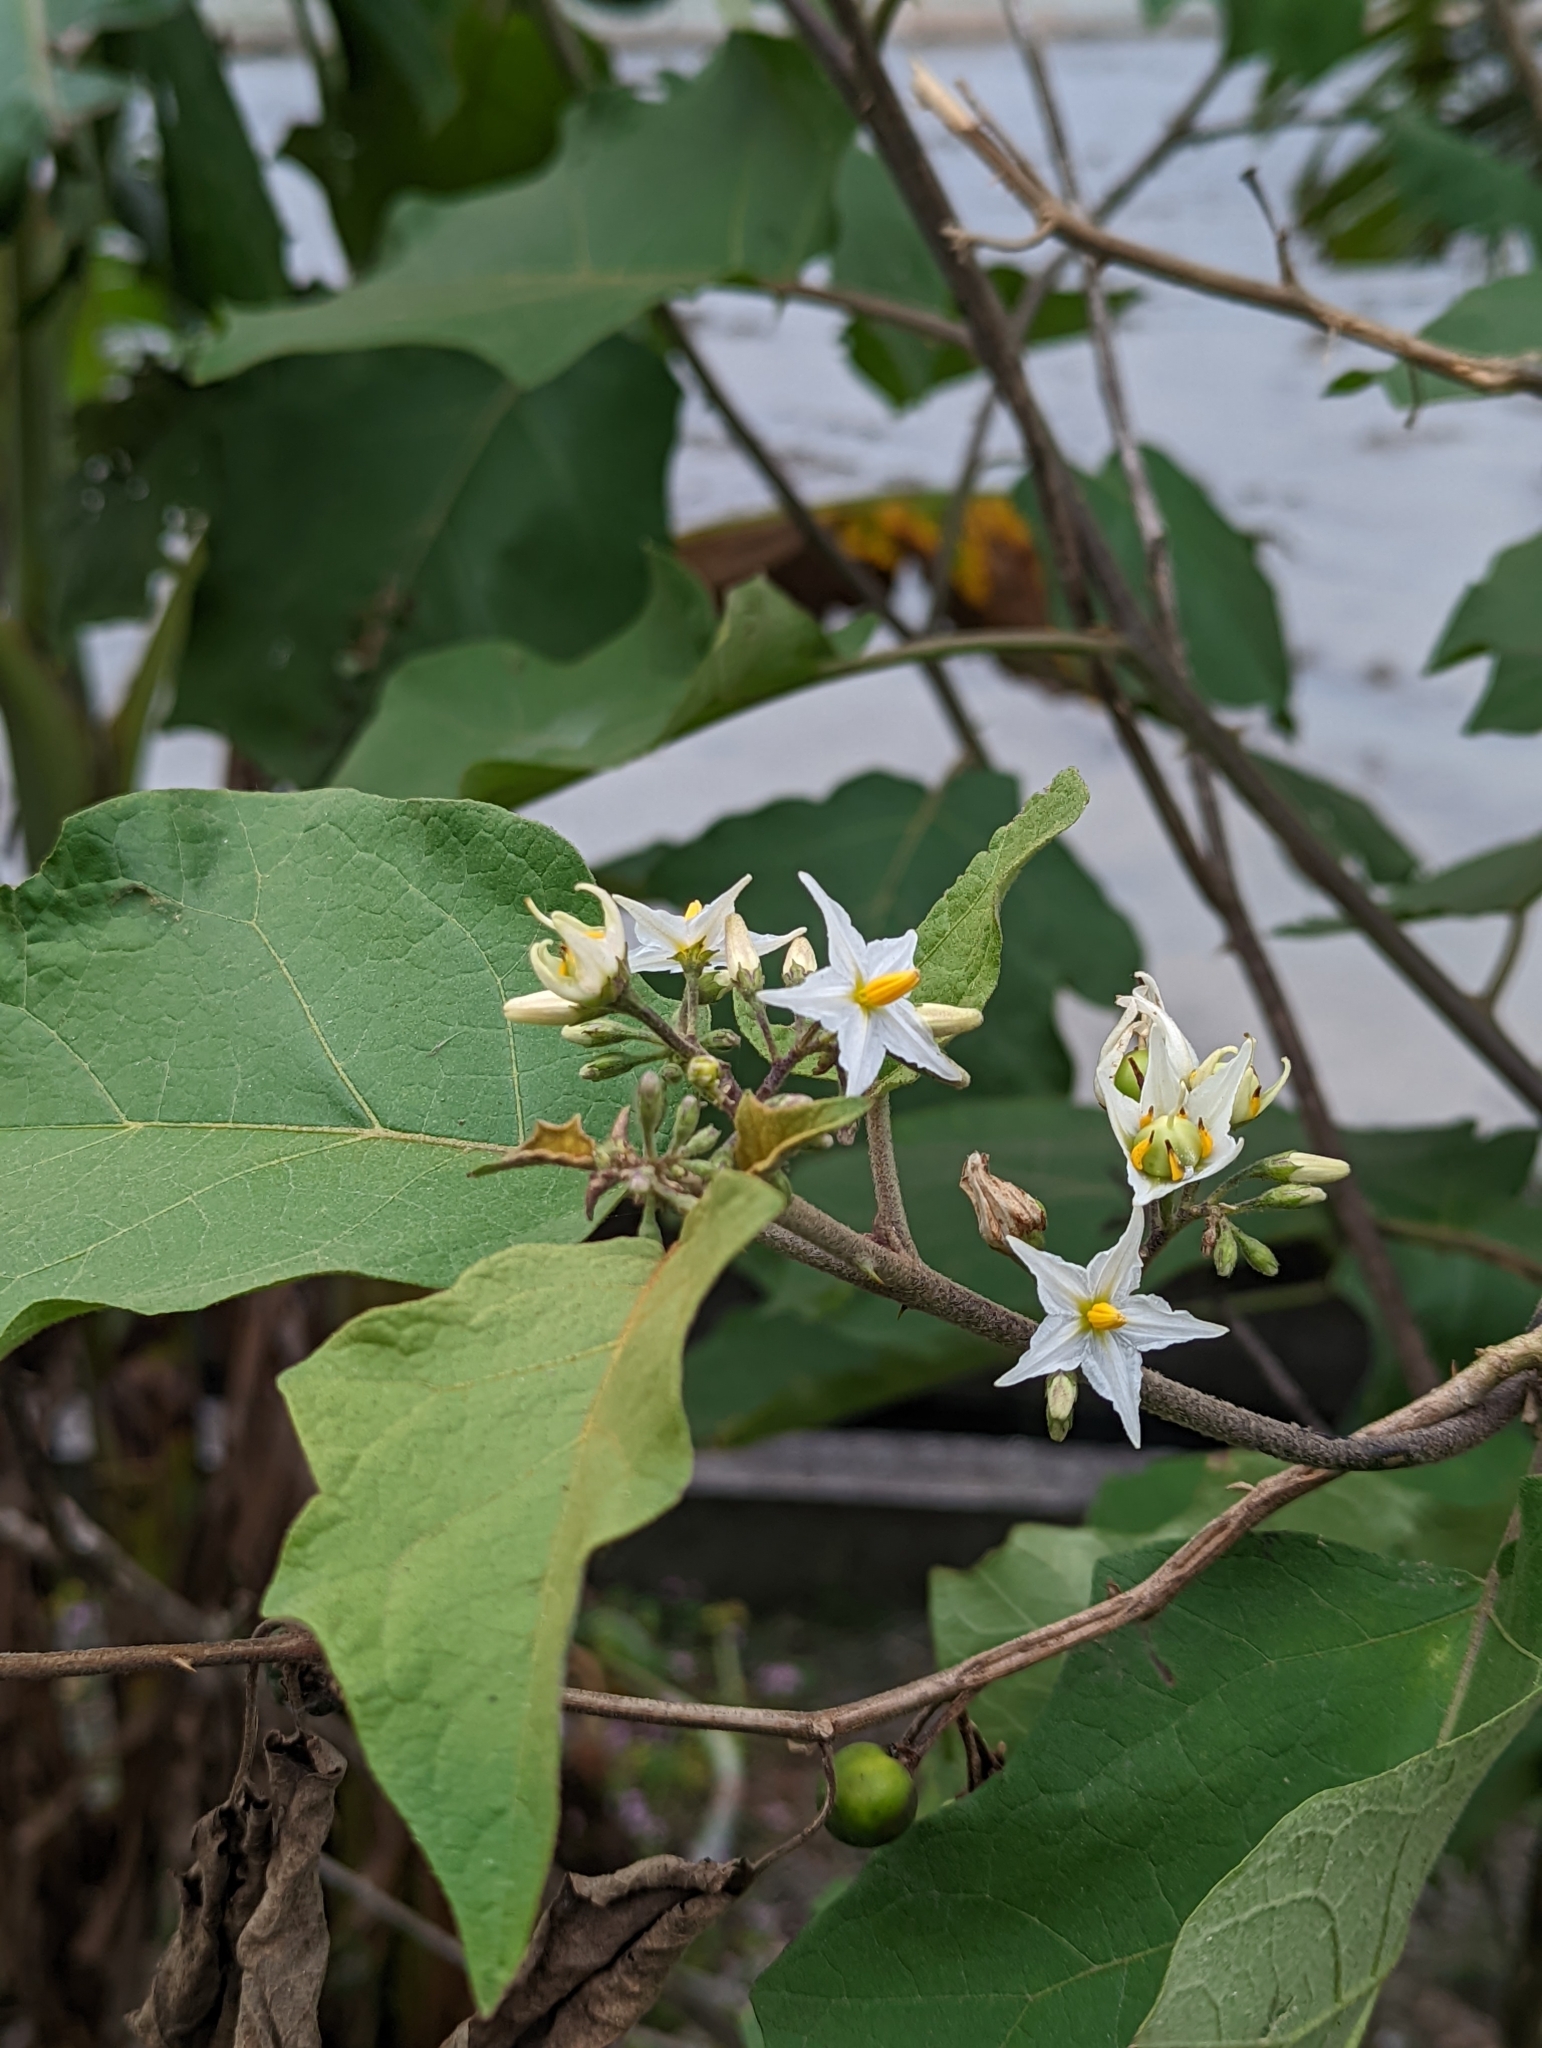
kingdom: Plantae
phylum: Tracheophyta
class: Magnoliopsida
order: Solanales
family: Solanaceae
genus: Solanum
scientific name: Solanum torvum
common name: Turkey berry
